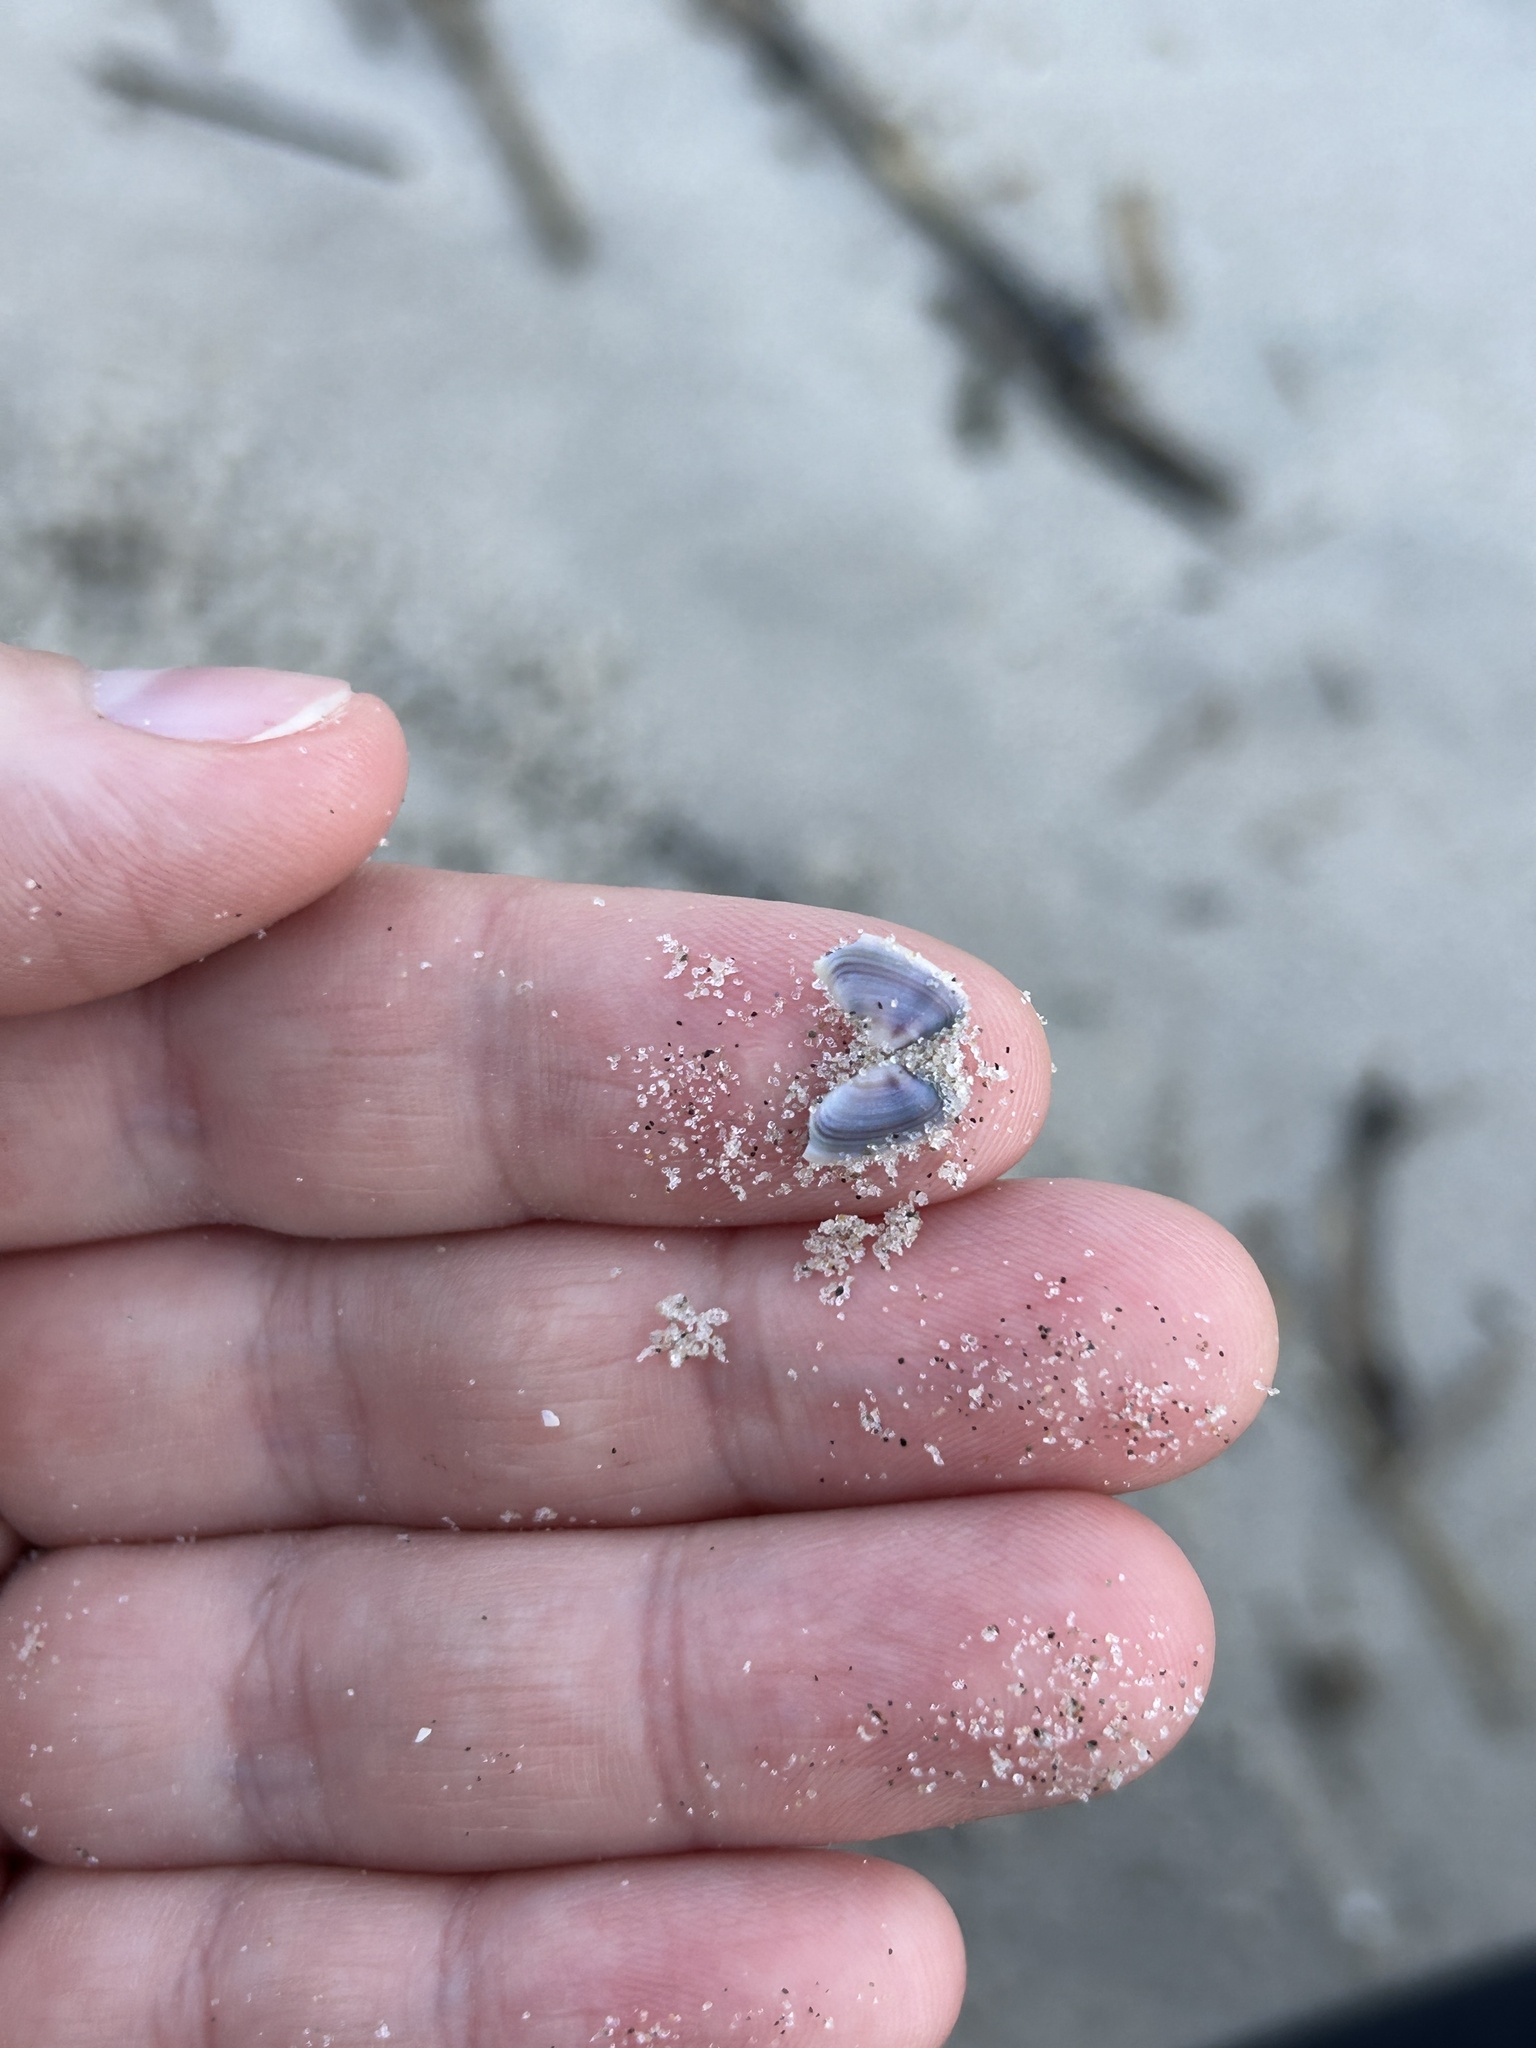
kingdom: Animalia
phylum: Mollusca
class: Bivalvia
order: Cardiida
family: Donacidae
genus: Donax
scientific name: Donax fossor
